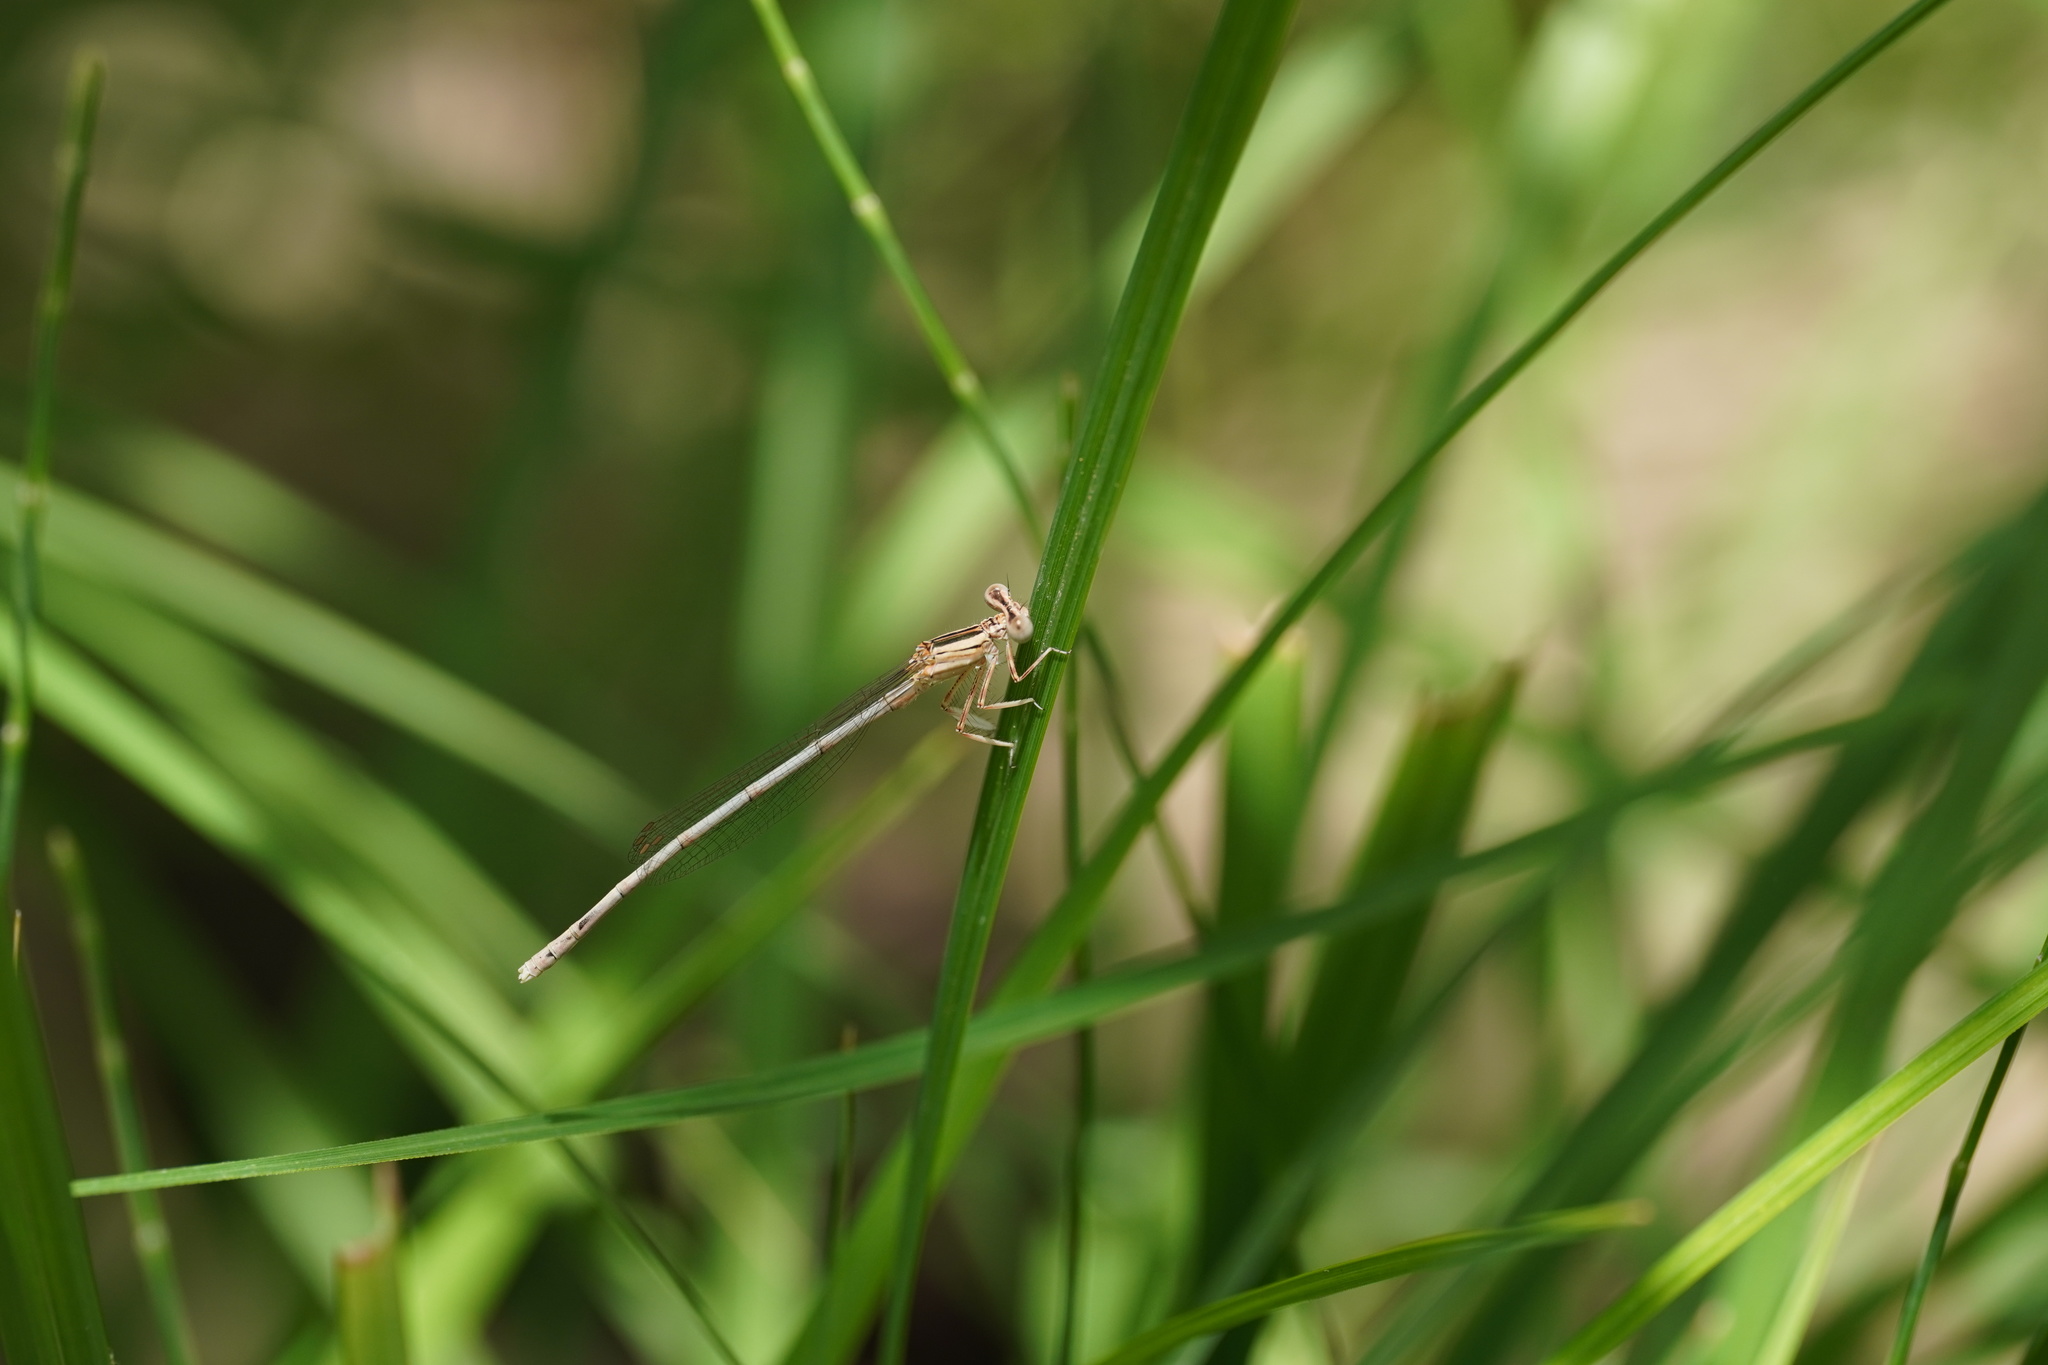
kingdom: Animalia
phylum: Arthropoda
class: Insecta
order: Odonata
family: Platycnemididae
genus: Platycnemis
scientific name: Platycnemis latipes
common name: White featherleg
